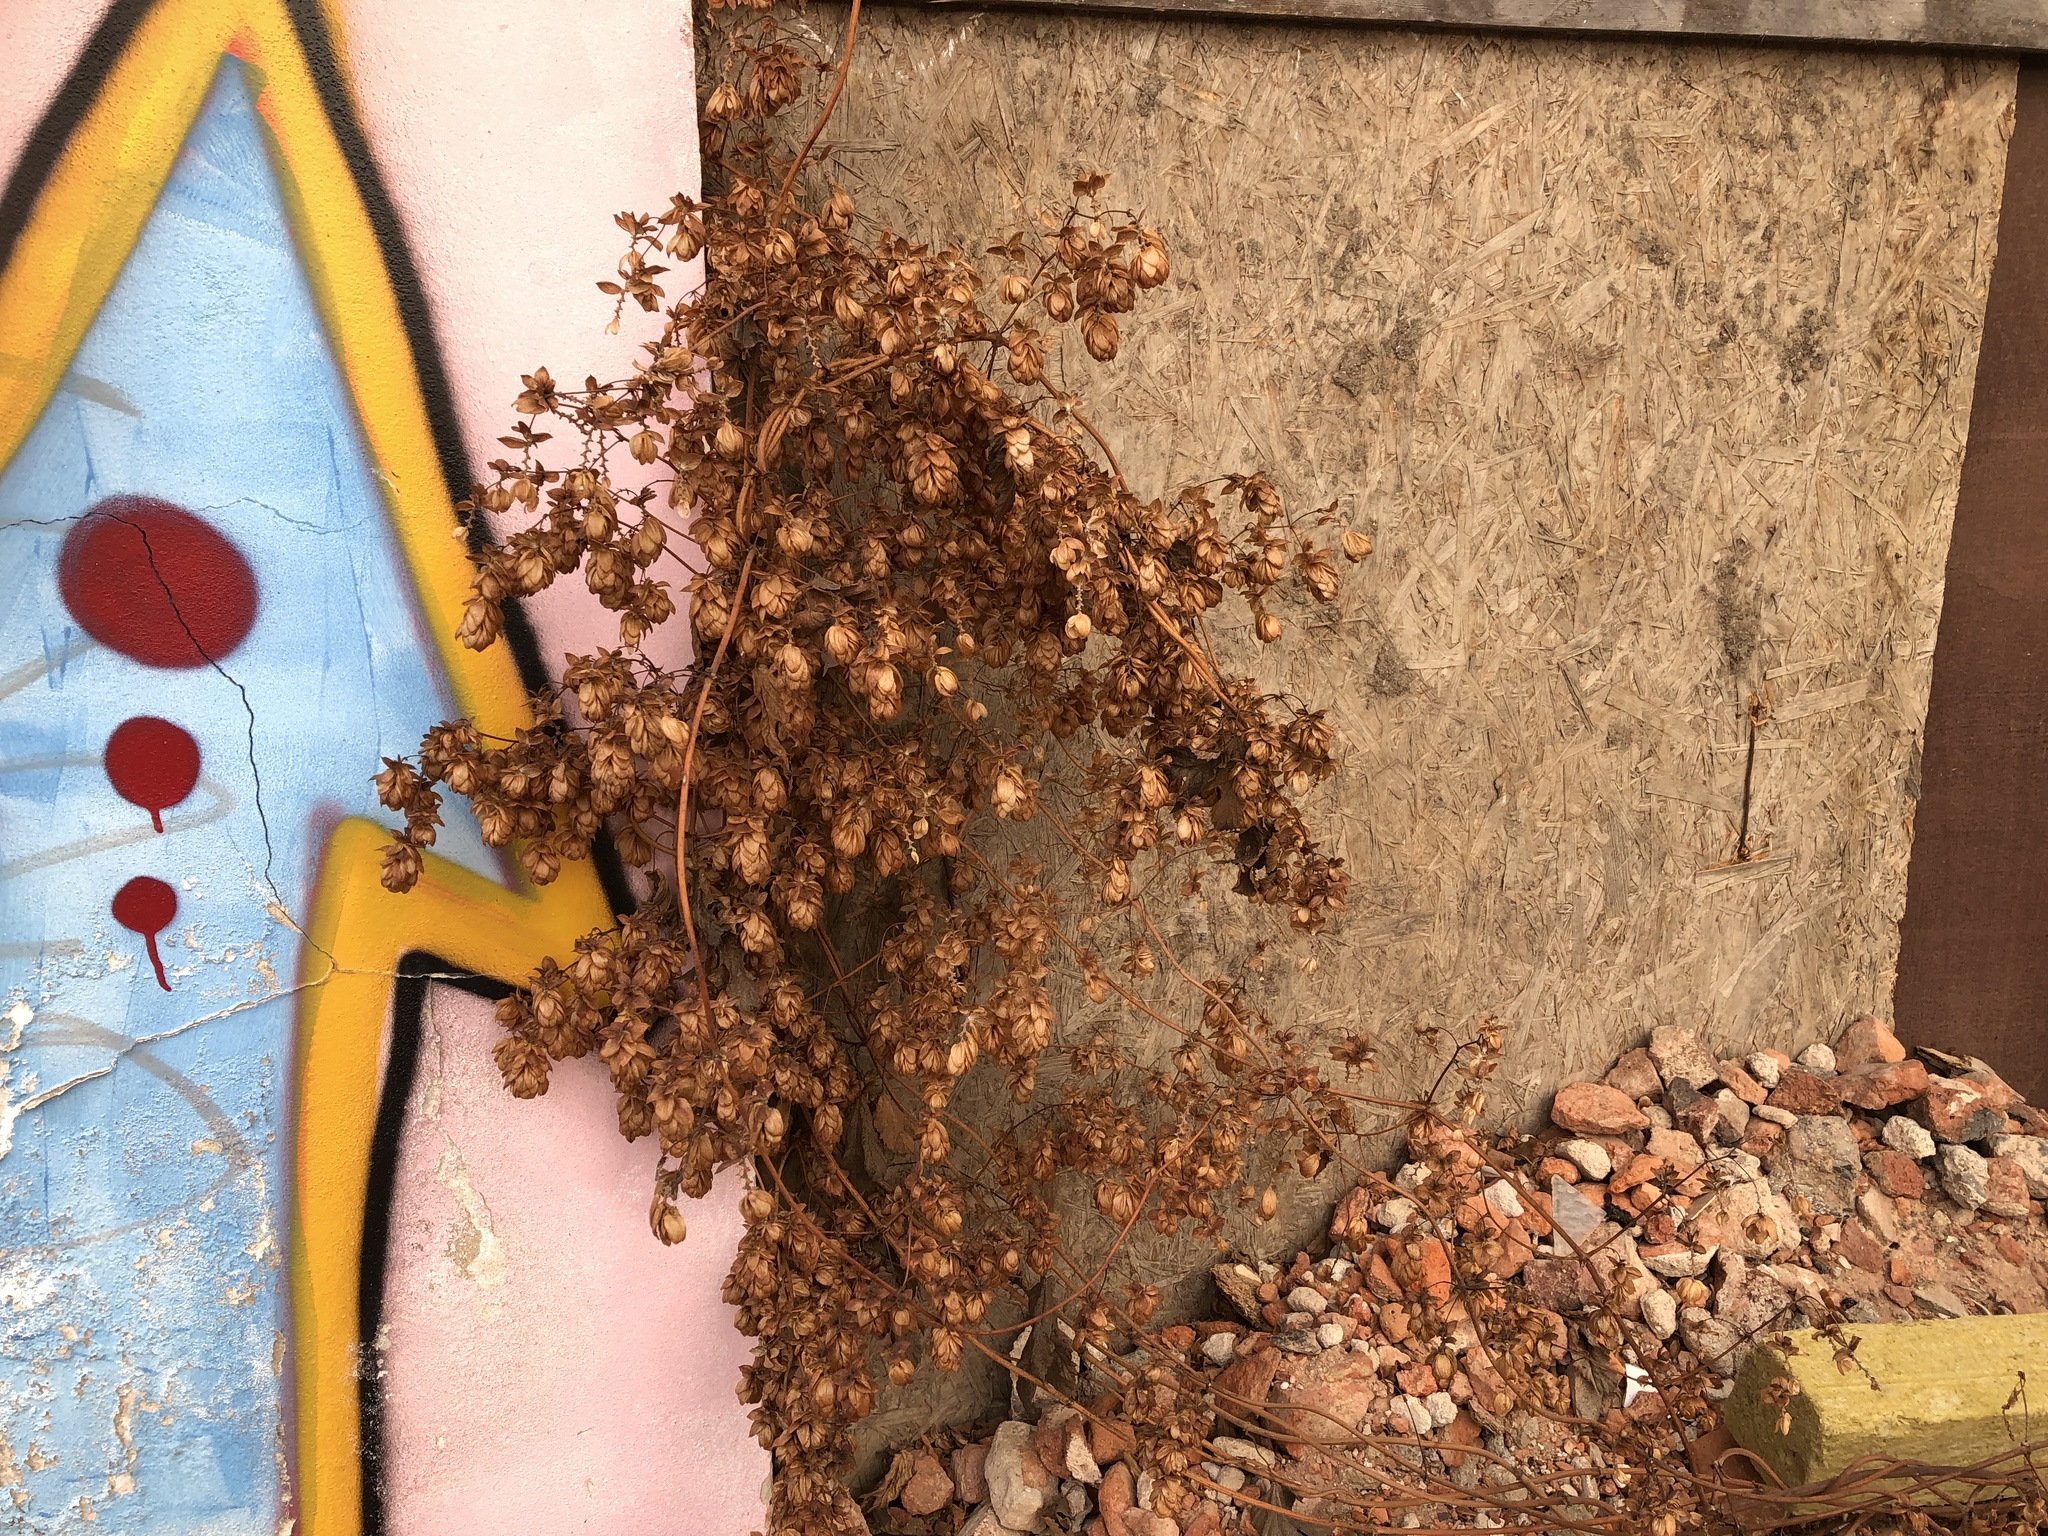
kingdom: Plantae
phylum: Tracheophyta
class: Magnoliopsida
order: Rosales
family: Cannabaceae
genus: Humulus
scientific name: Humulus lupulus
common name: Hop
